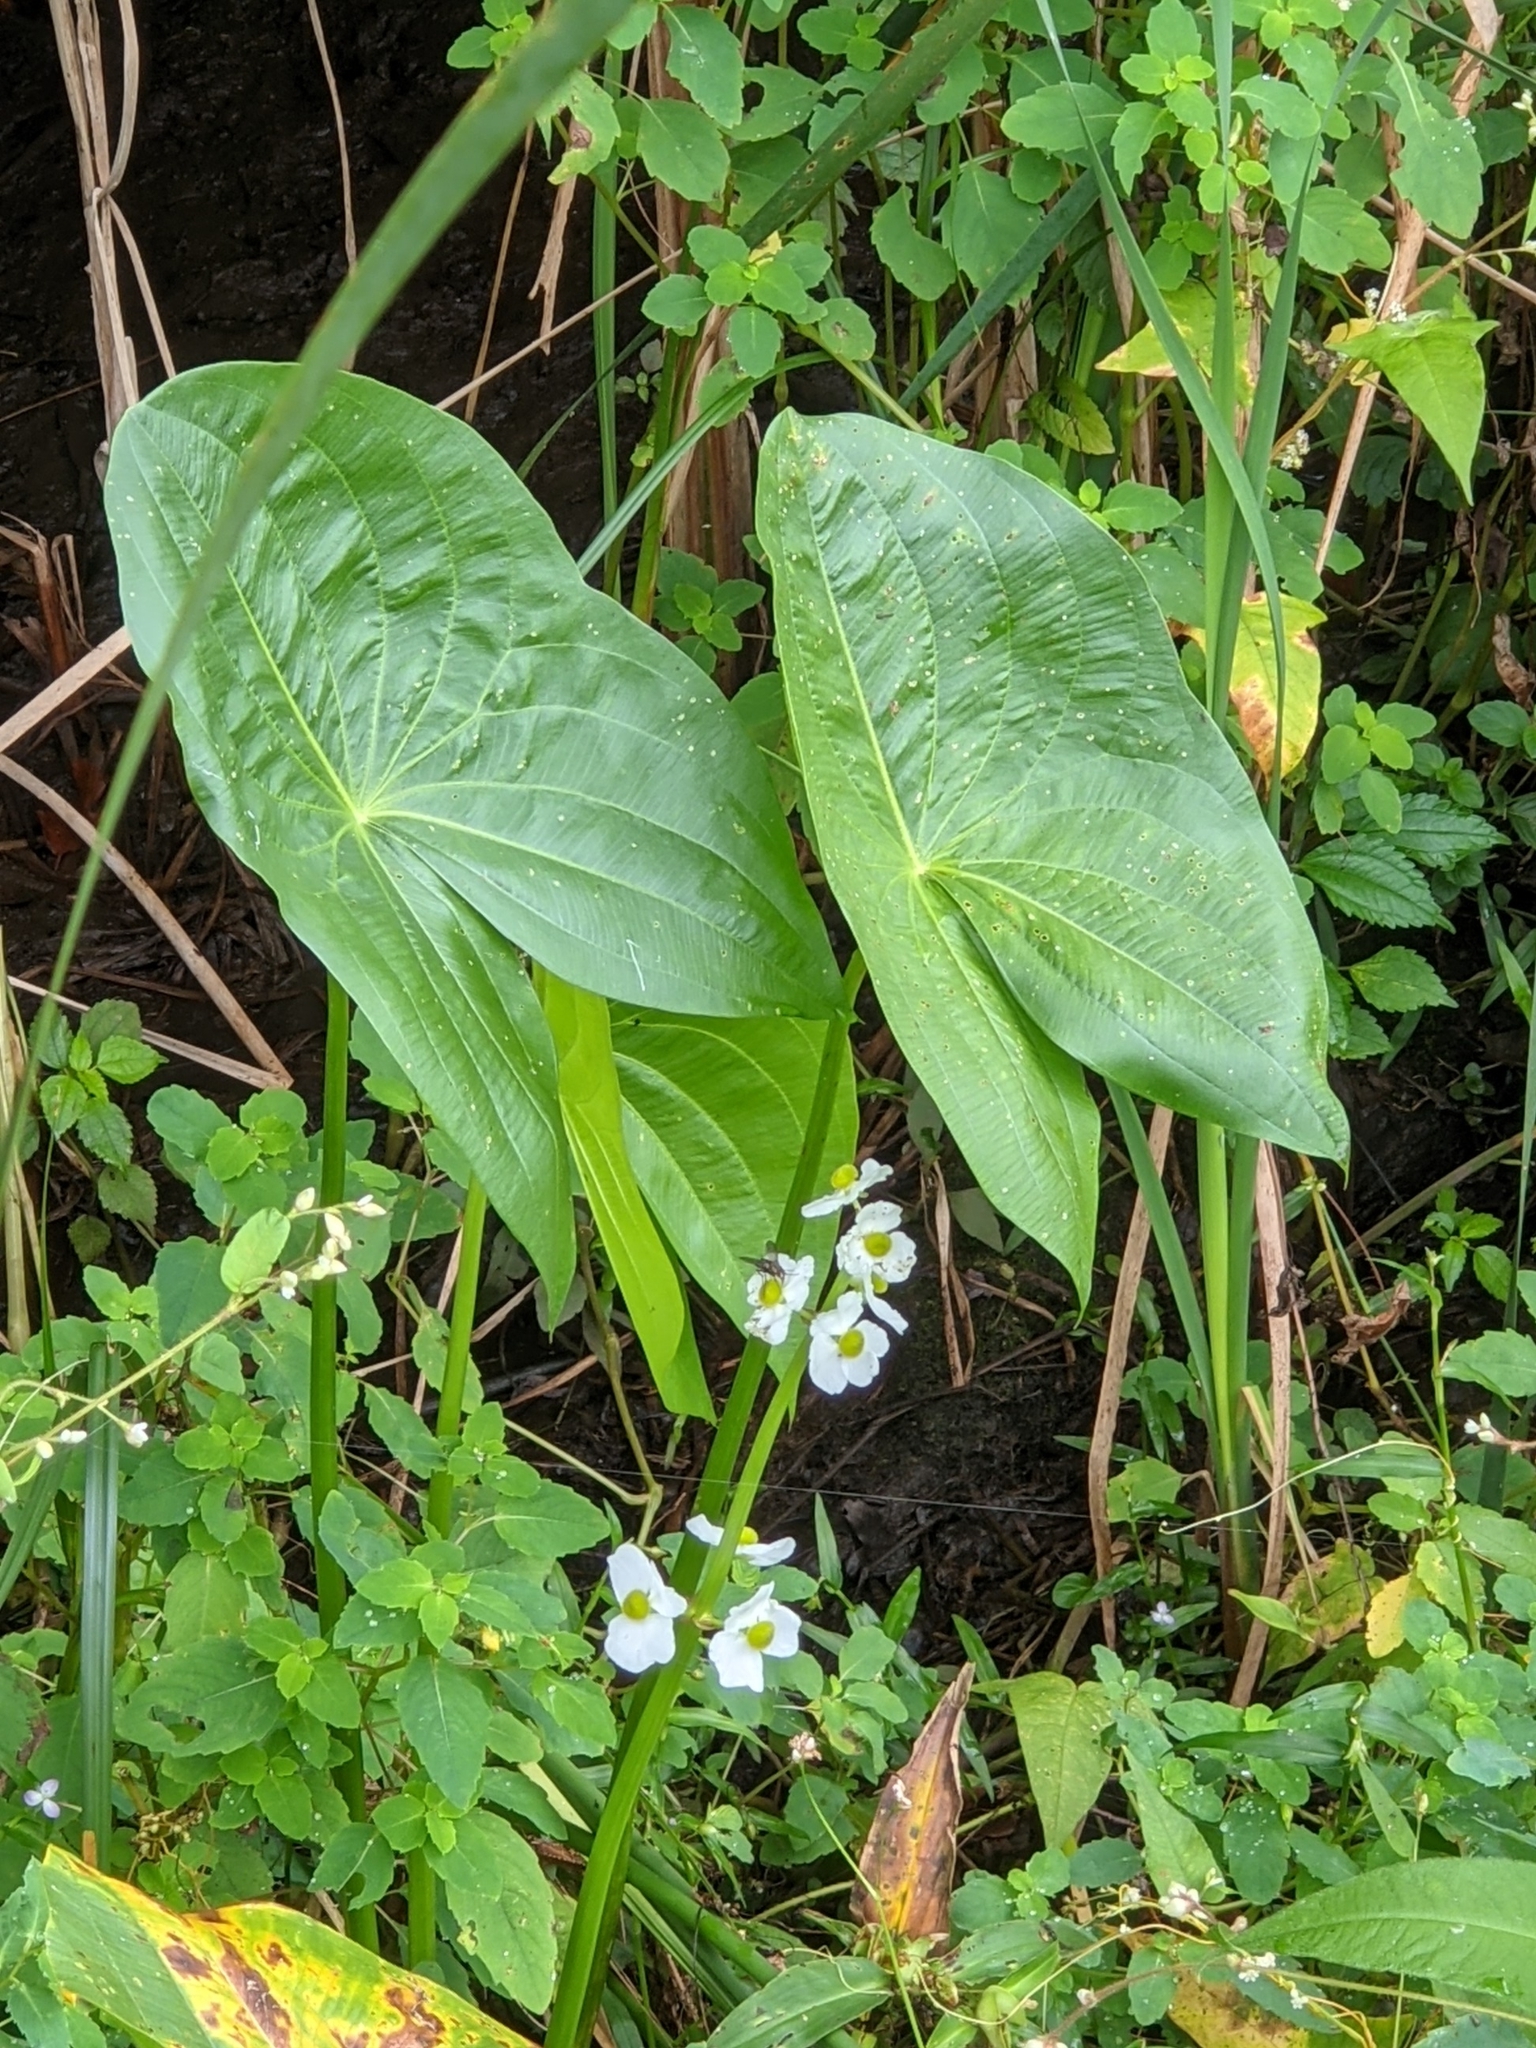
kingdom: Plantae
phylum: Tracheophyta
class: Liliopsida
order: Alismatales
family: Alismataceae
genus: Sagittaria
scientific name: Sagittaria latifolia
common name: Duck-potato
